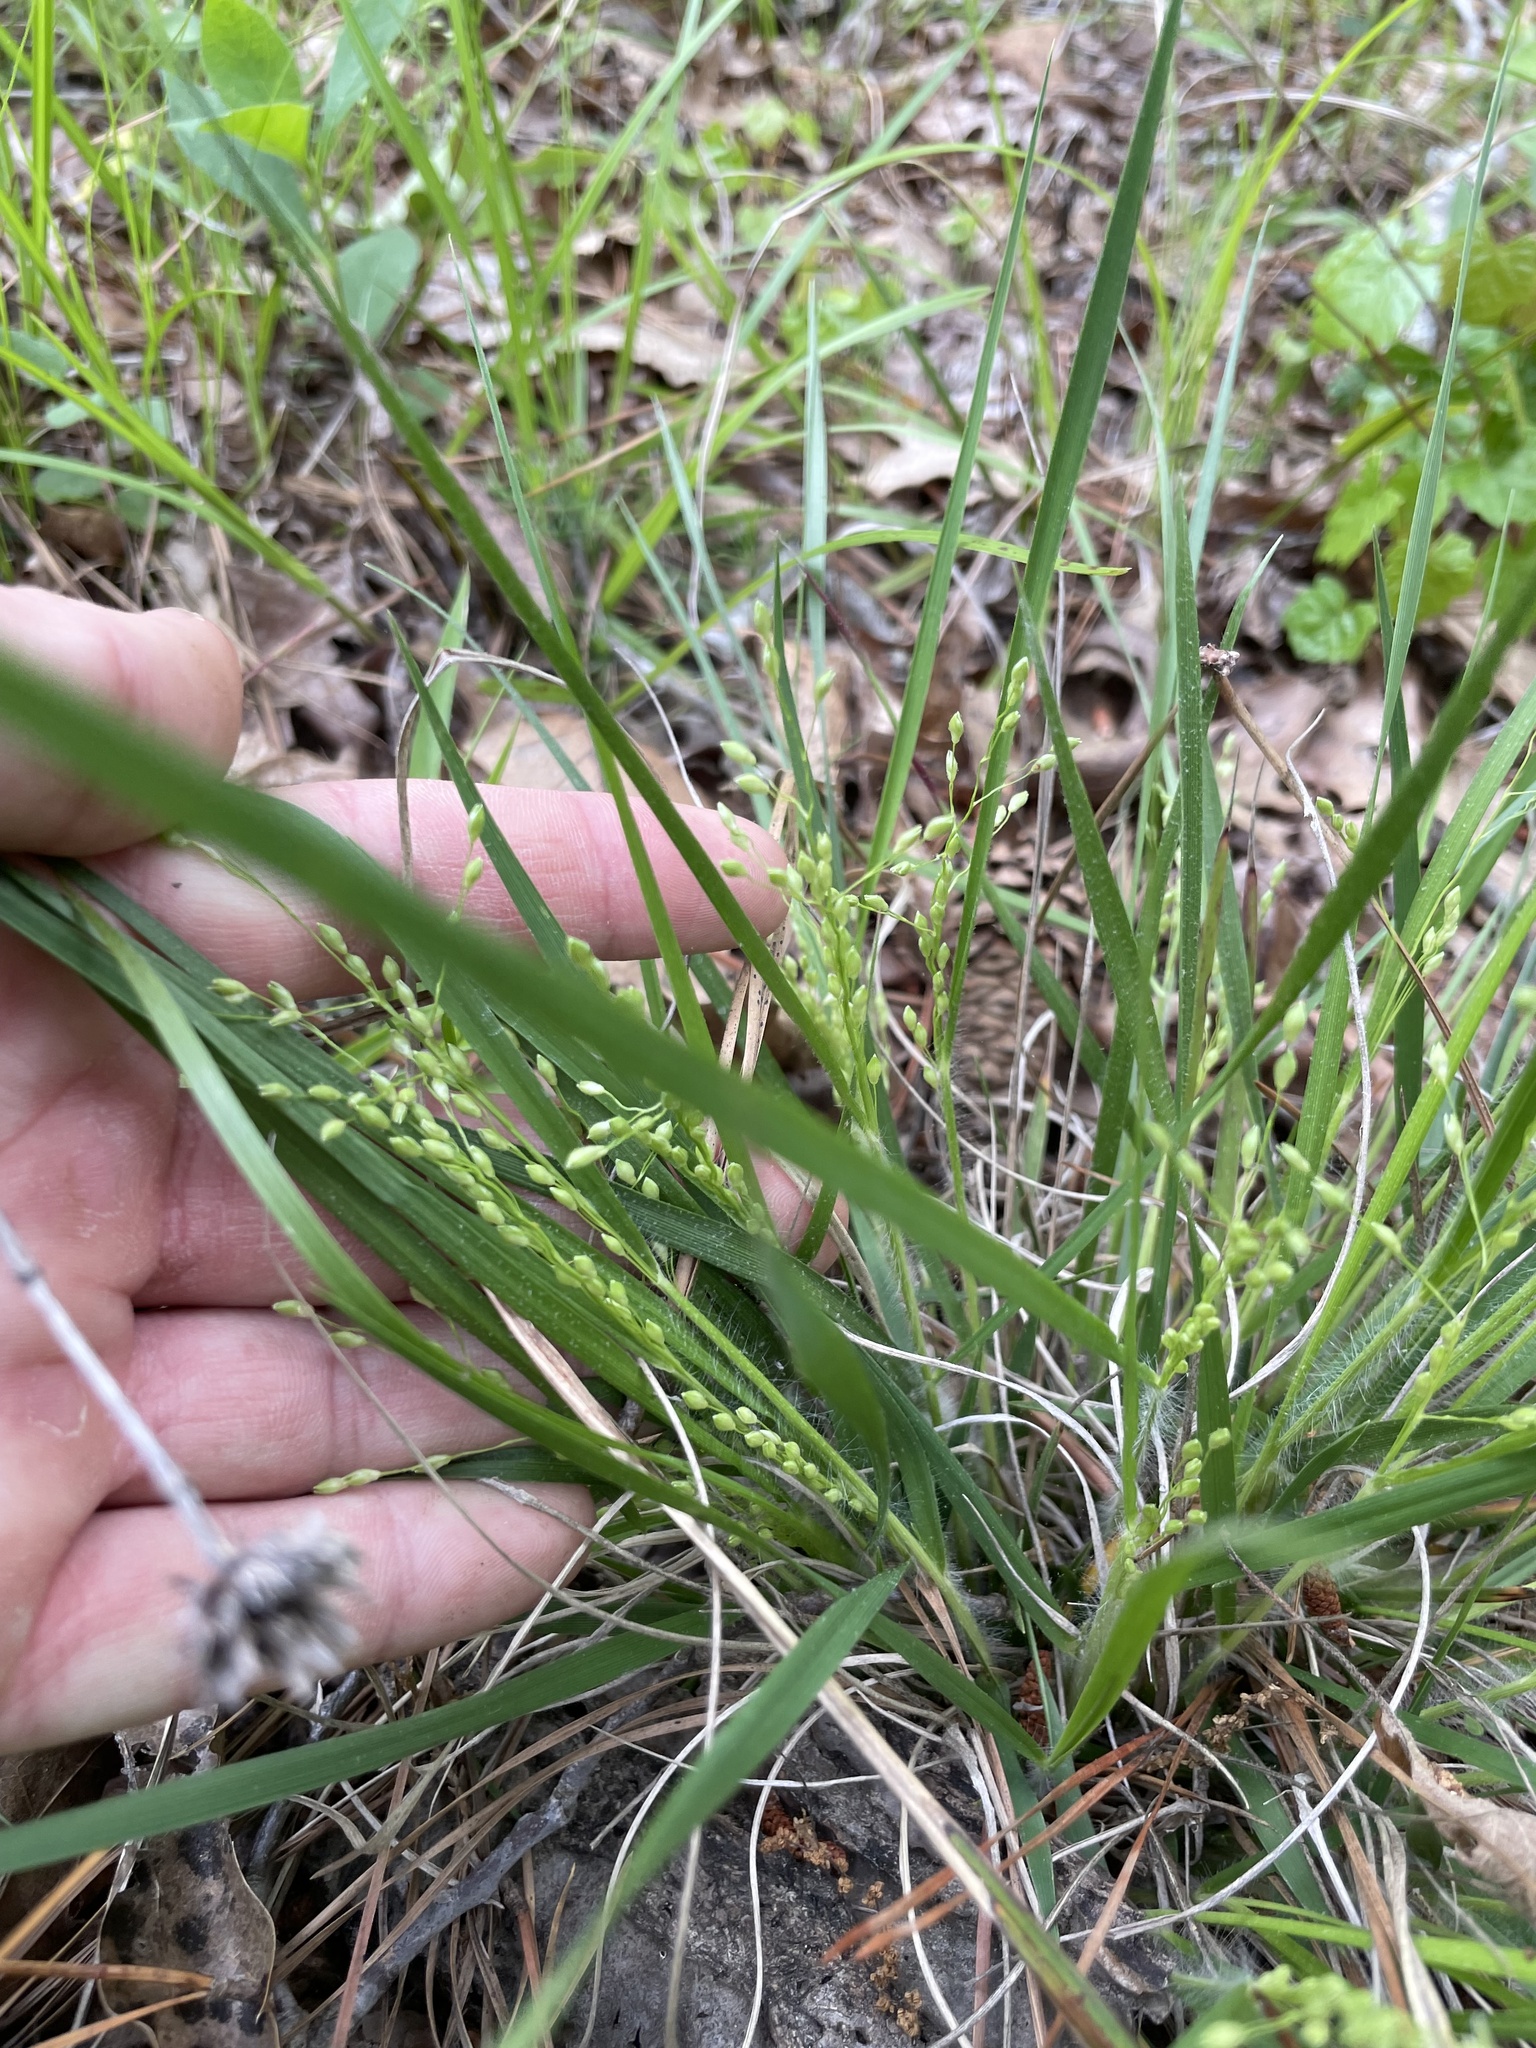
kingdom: Plantae
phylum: Tracheophyta
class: Liliopsida
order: Poales
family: Poaceae
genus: Dichanthelium
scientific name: Dichanthelium depauperatum
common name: Depauperate panicgrass
